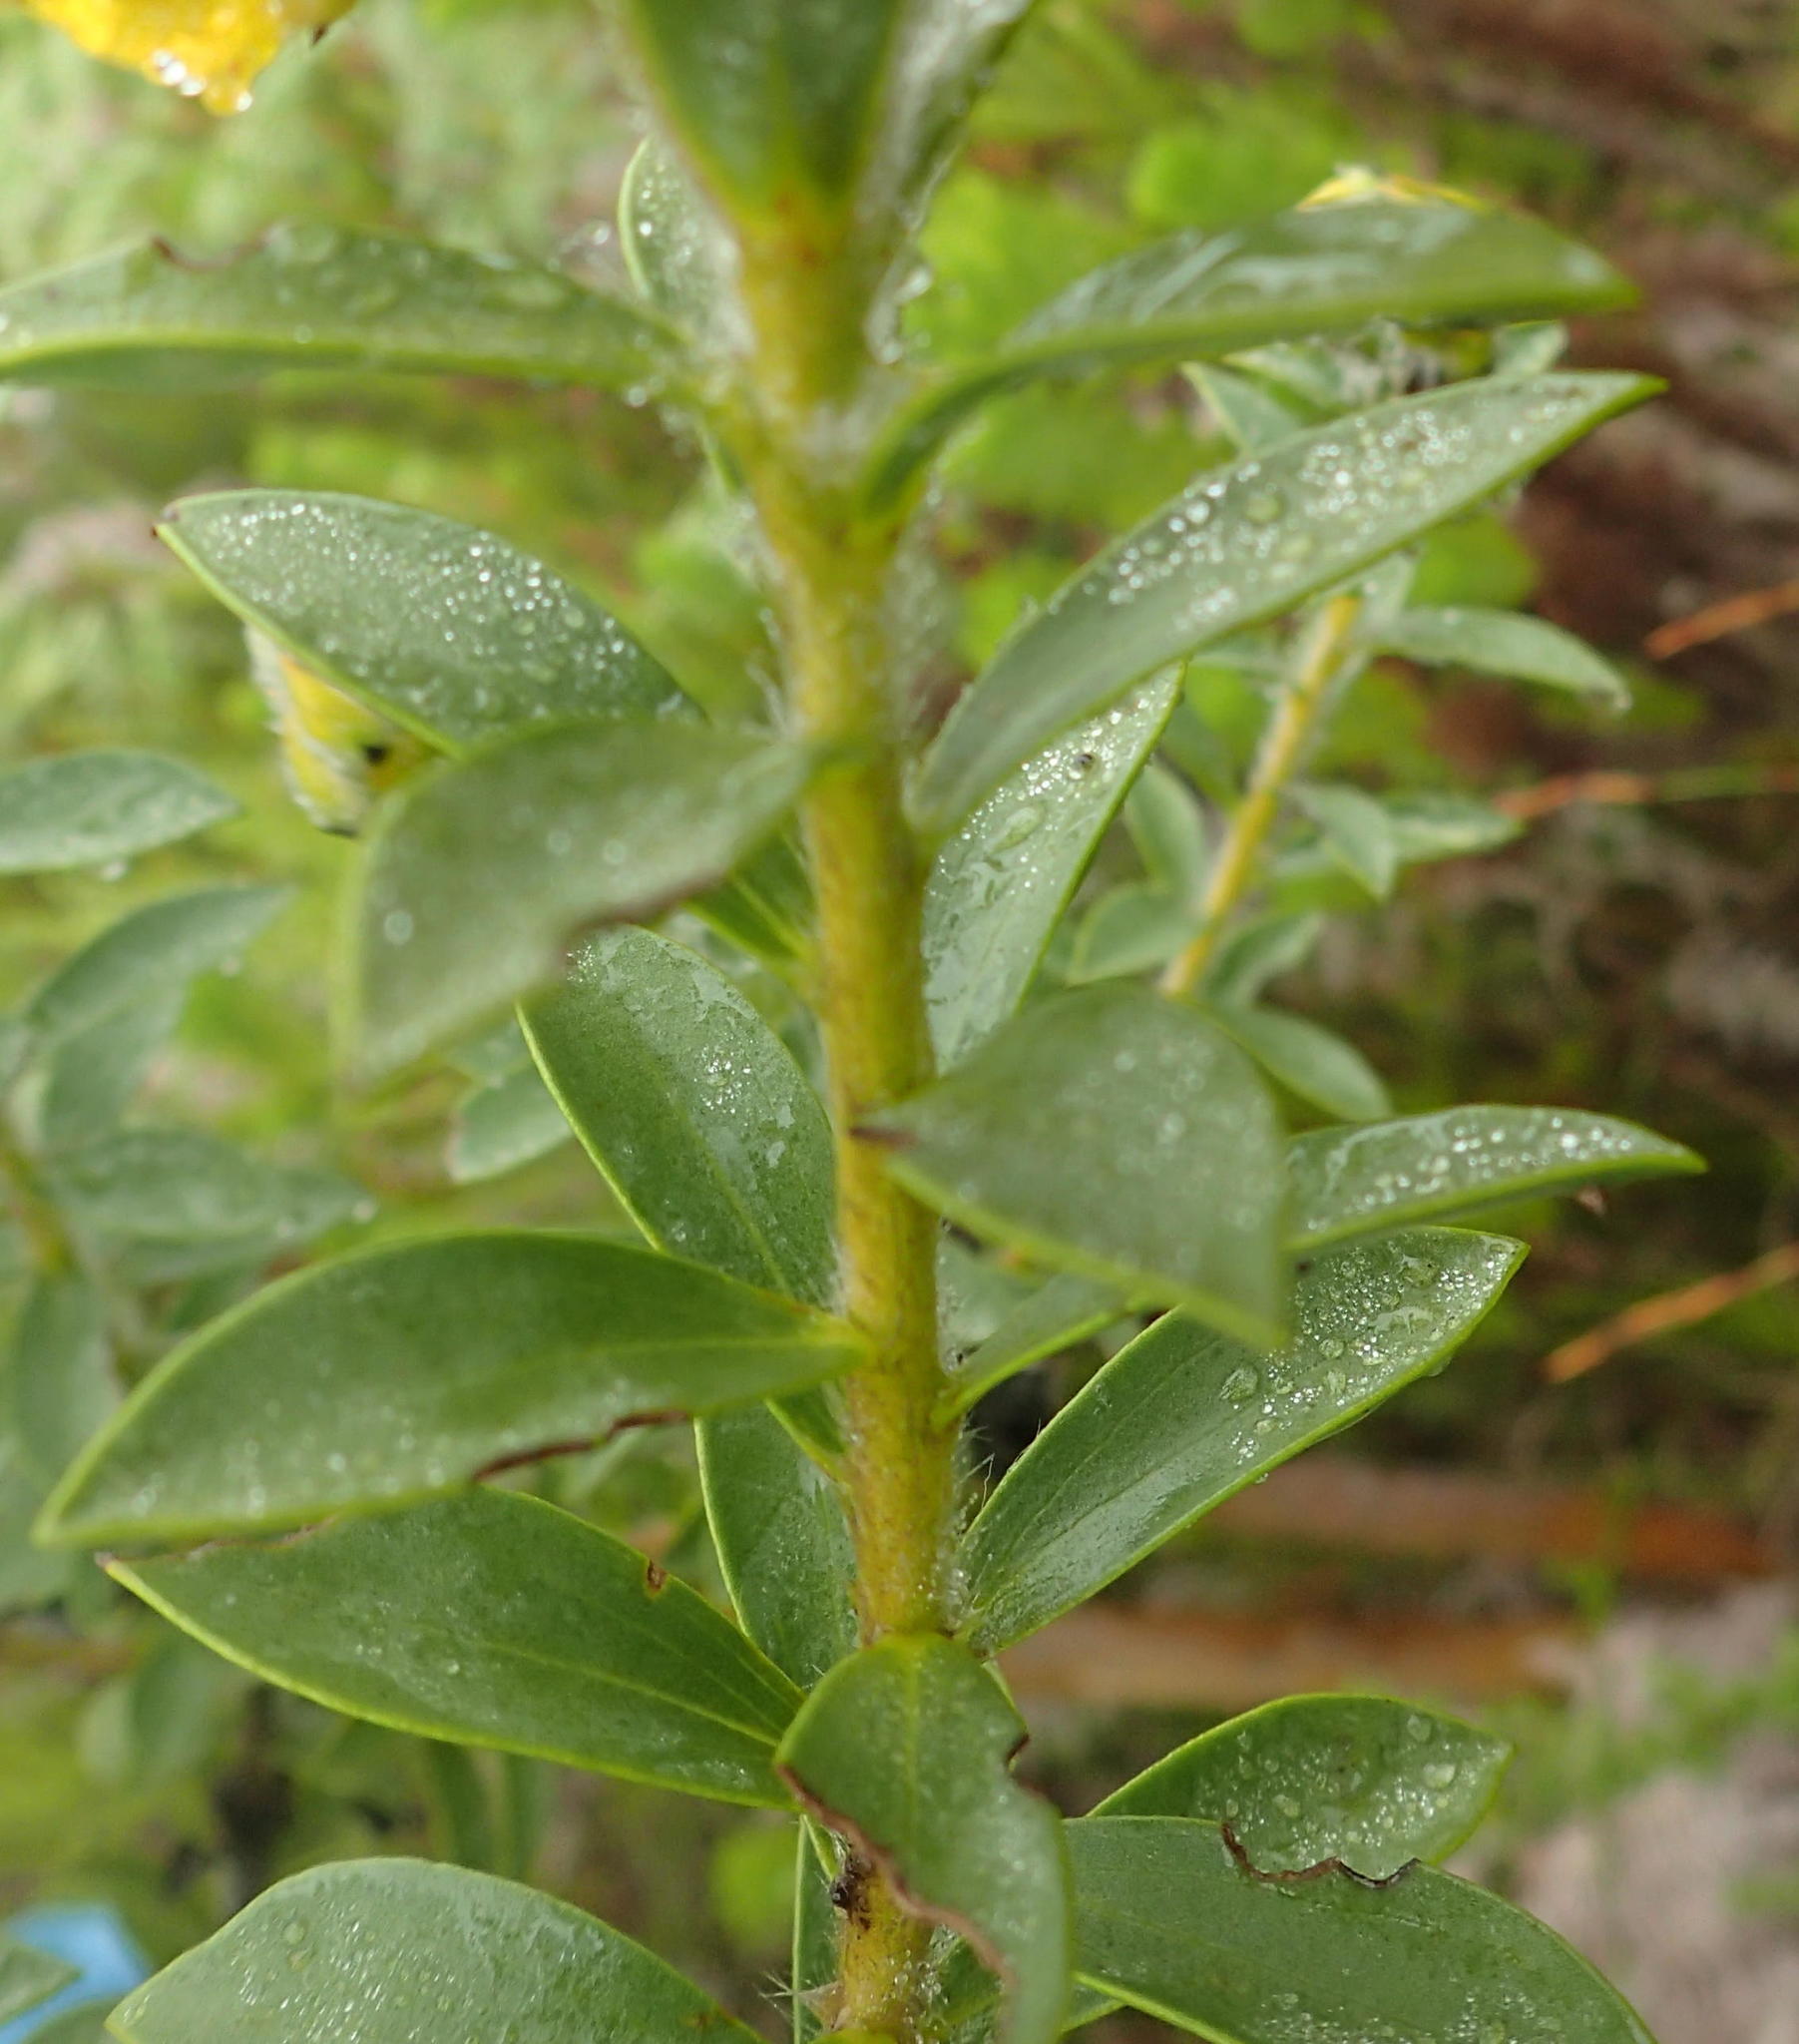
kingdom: Plantae
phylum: Tracheophyta
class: Magnoliopsida
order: Fabales
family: Fabaceae
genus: Liparia
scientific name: Liparia hirsuta
